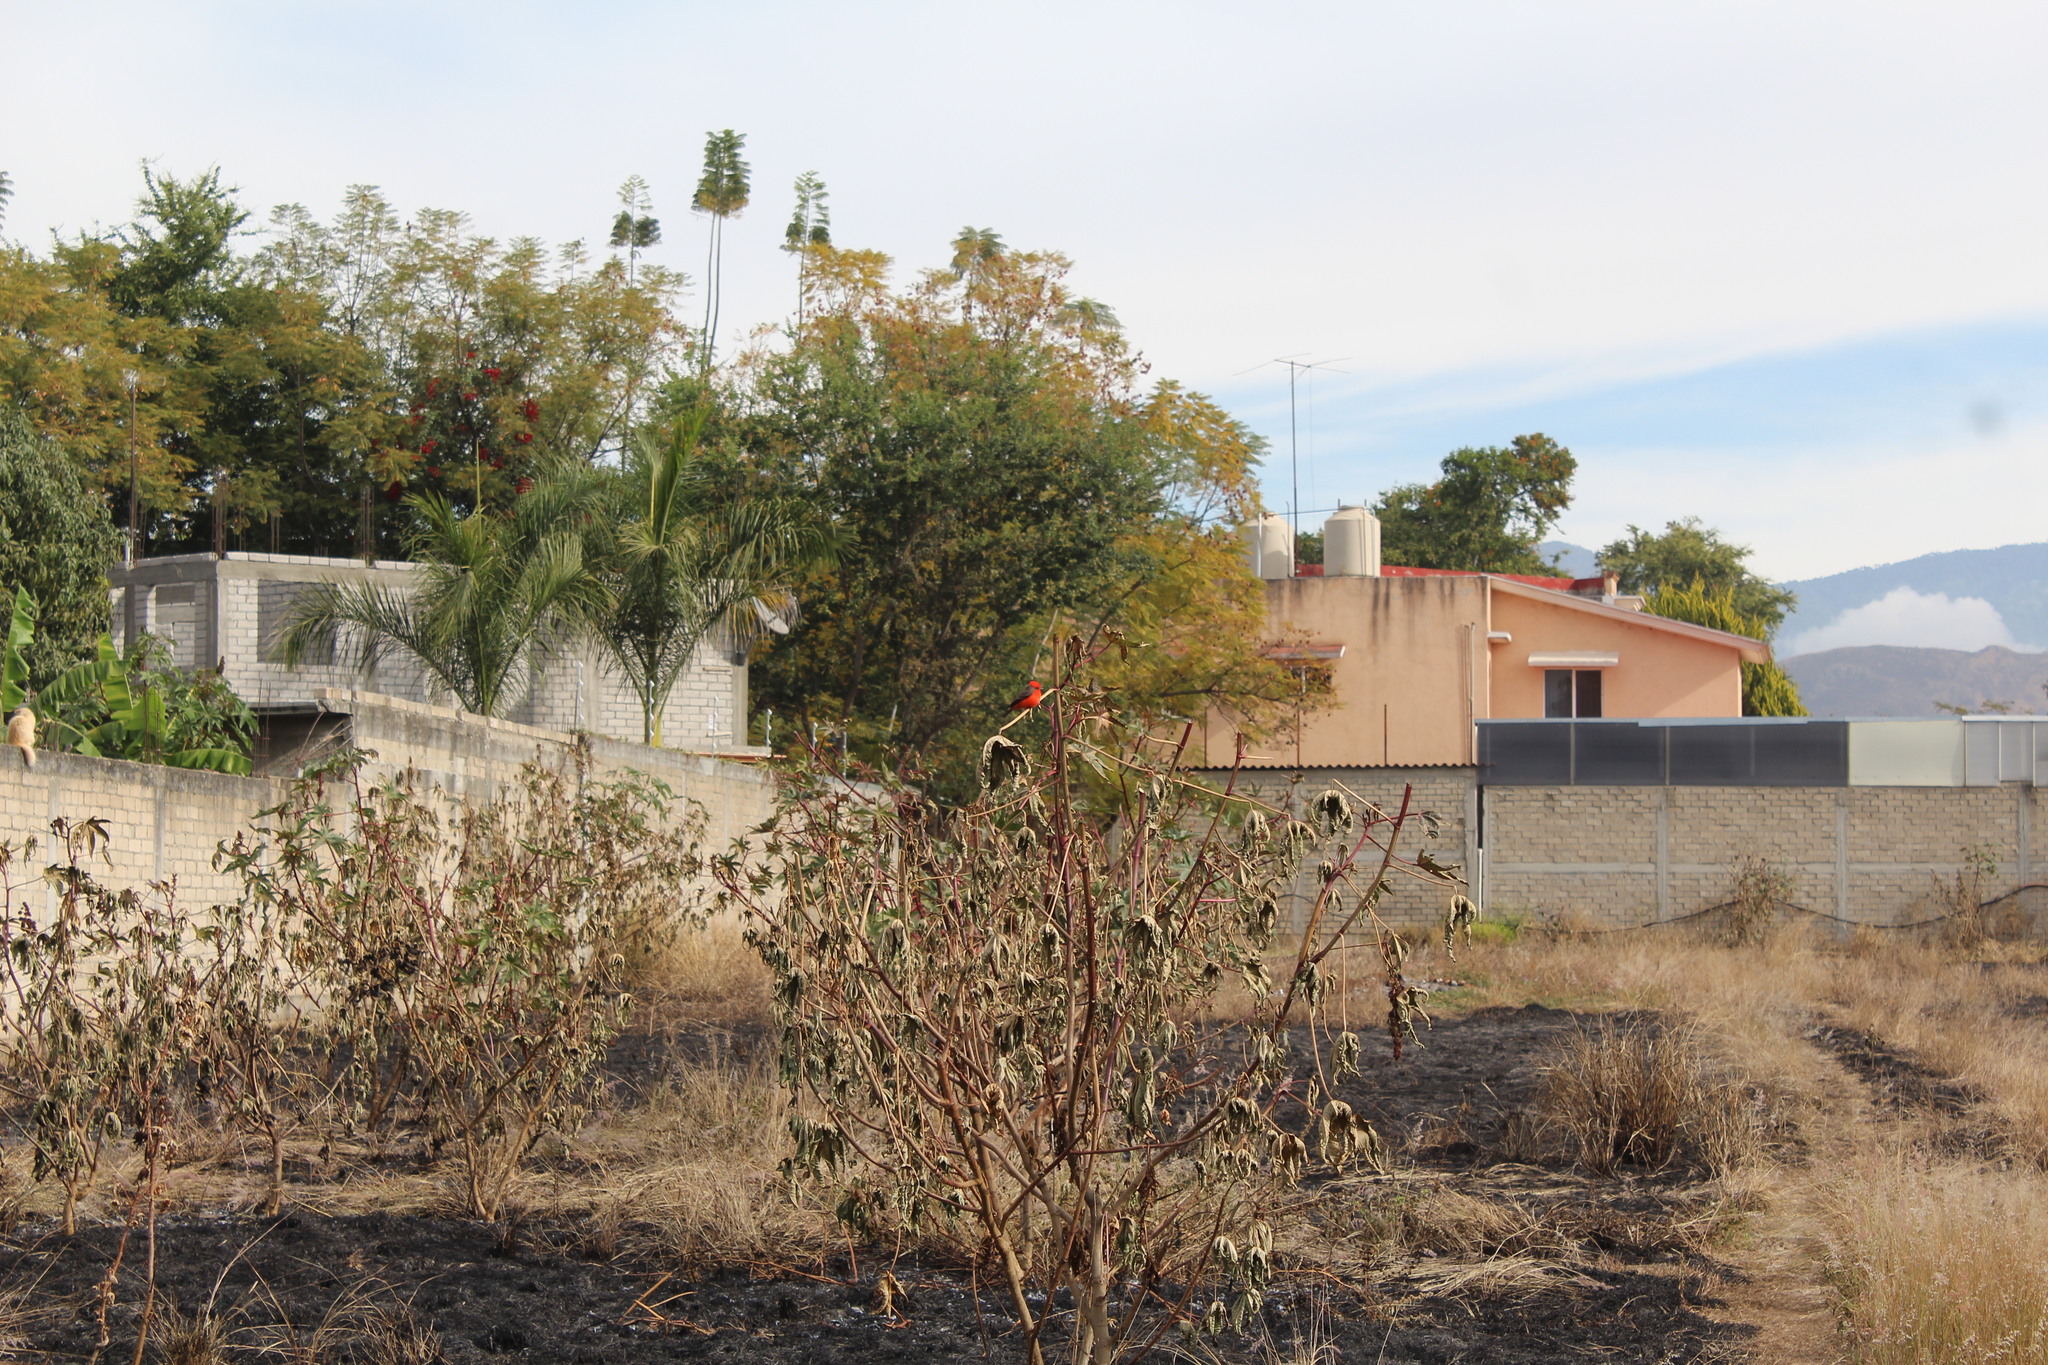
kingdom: Animalia
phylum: Chordata
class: Aves
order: Passeriformes
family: Tyrannidae
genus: Pyrocephalus
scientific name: Pyrocephalus rubinus
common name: Vermilion flycatcher
